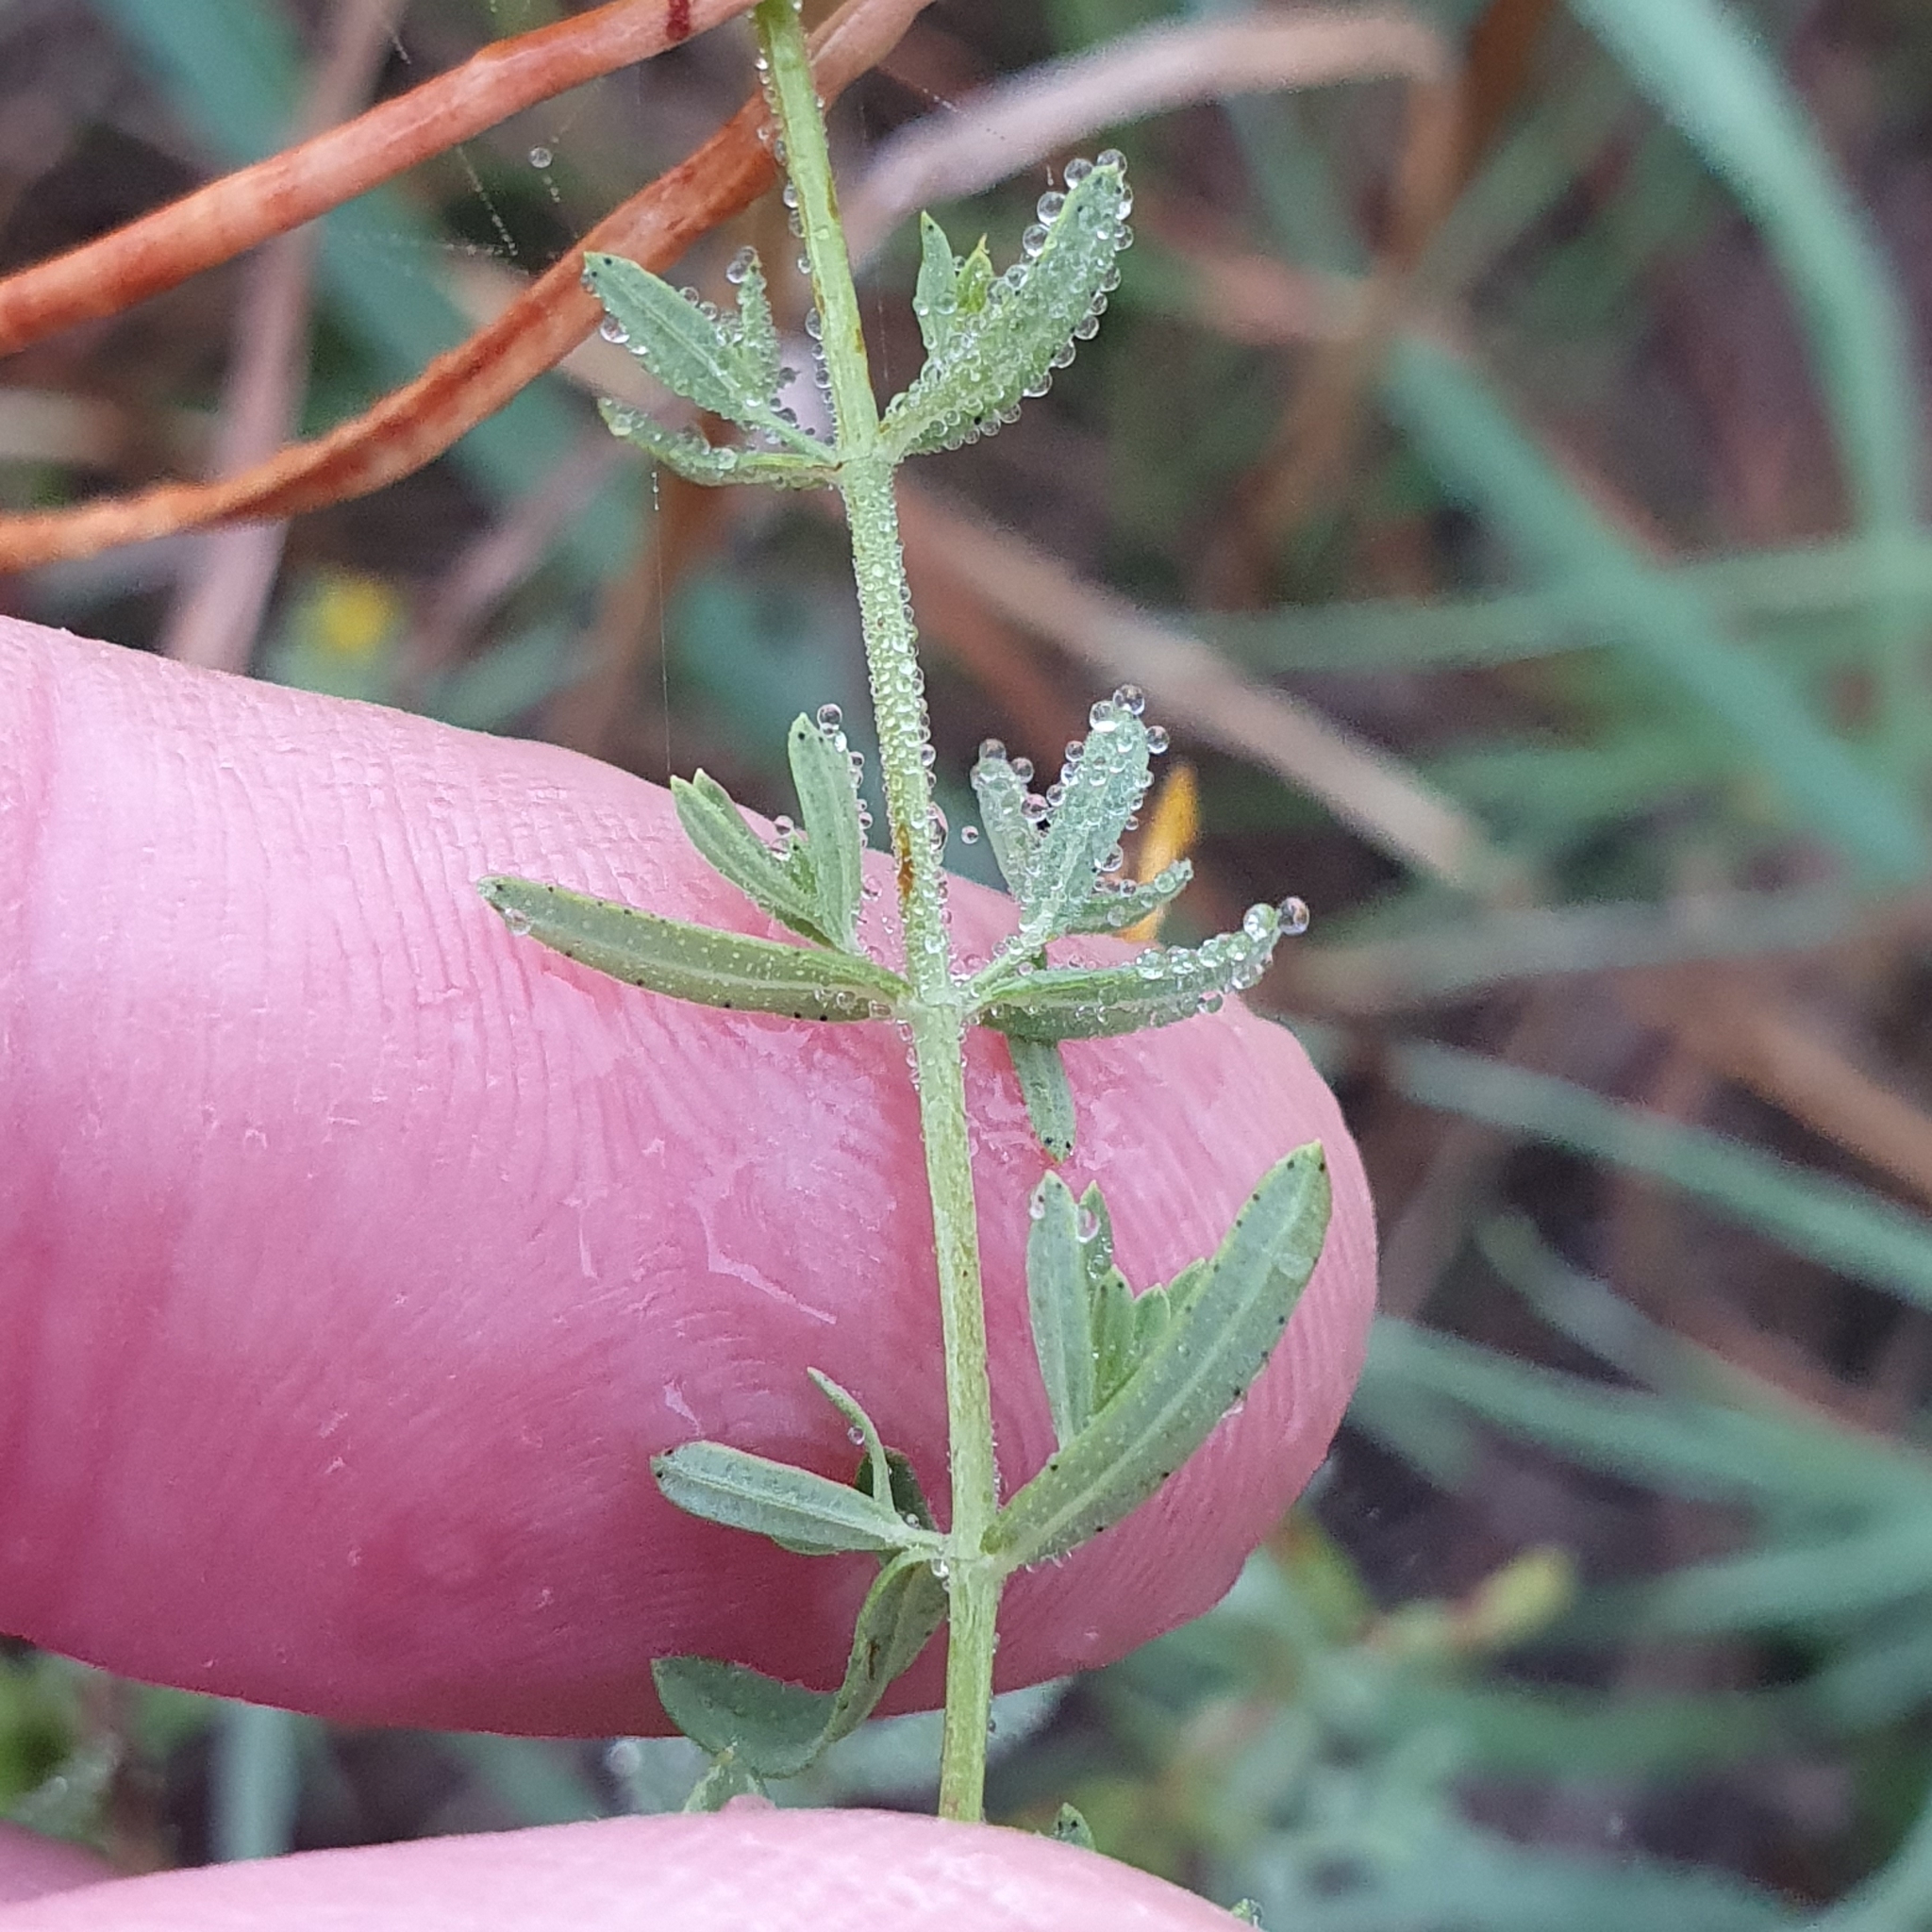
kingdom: Plantae
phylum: Tracheophyta
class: Magnoliopsida
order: Malpighiales
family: Hypericaceae
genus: Hypericum
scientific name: Hypericum perforatum
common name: Common st. johnswort
